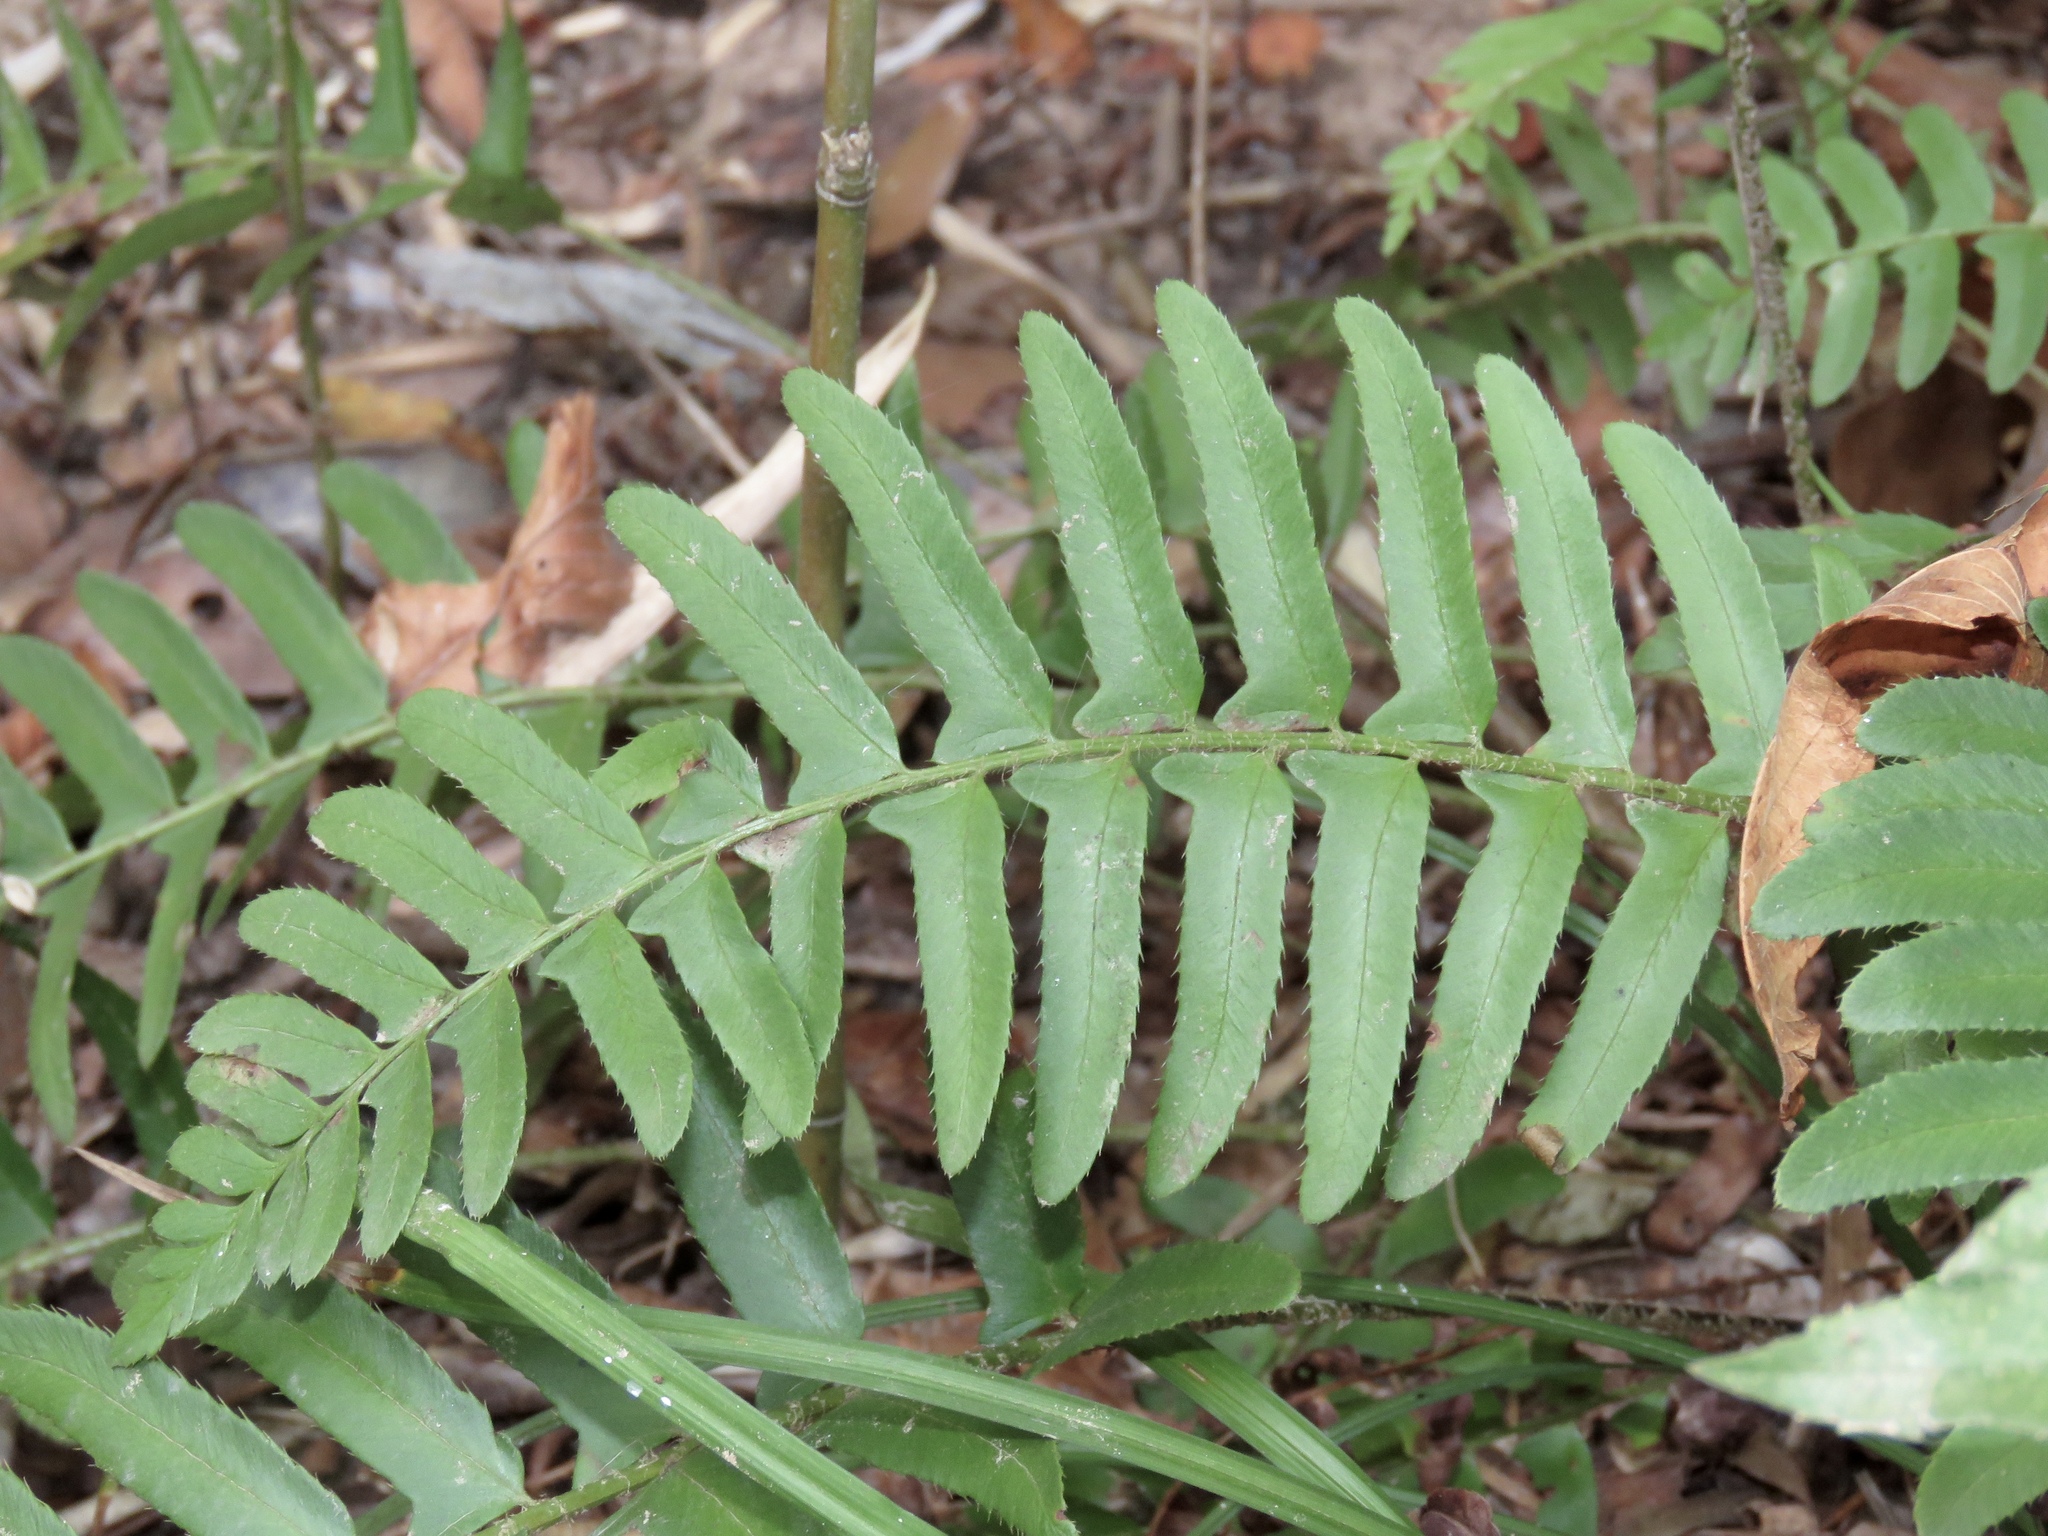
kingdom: Plantae
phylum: Tracheophyta
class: Polypodiopsida
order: Polypodiales
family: Dryopteridaceae
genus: Polystichum
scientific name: Polystichum acrostichoides
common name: Christmas fern
